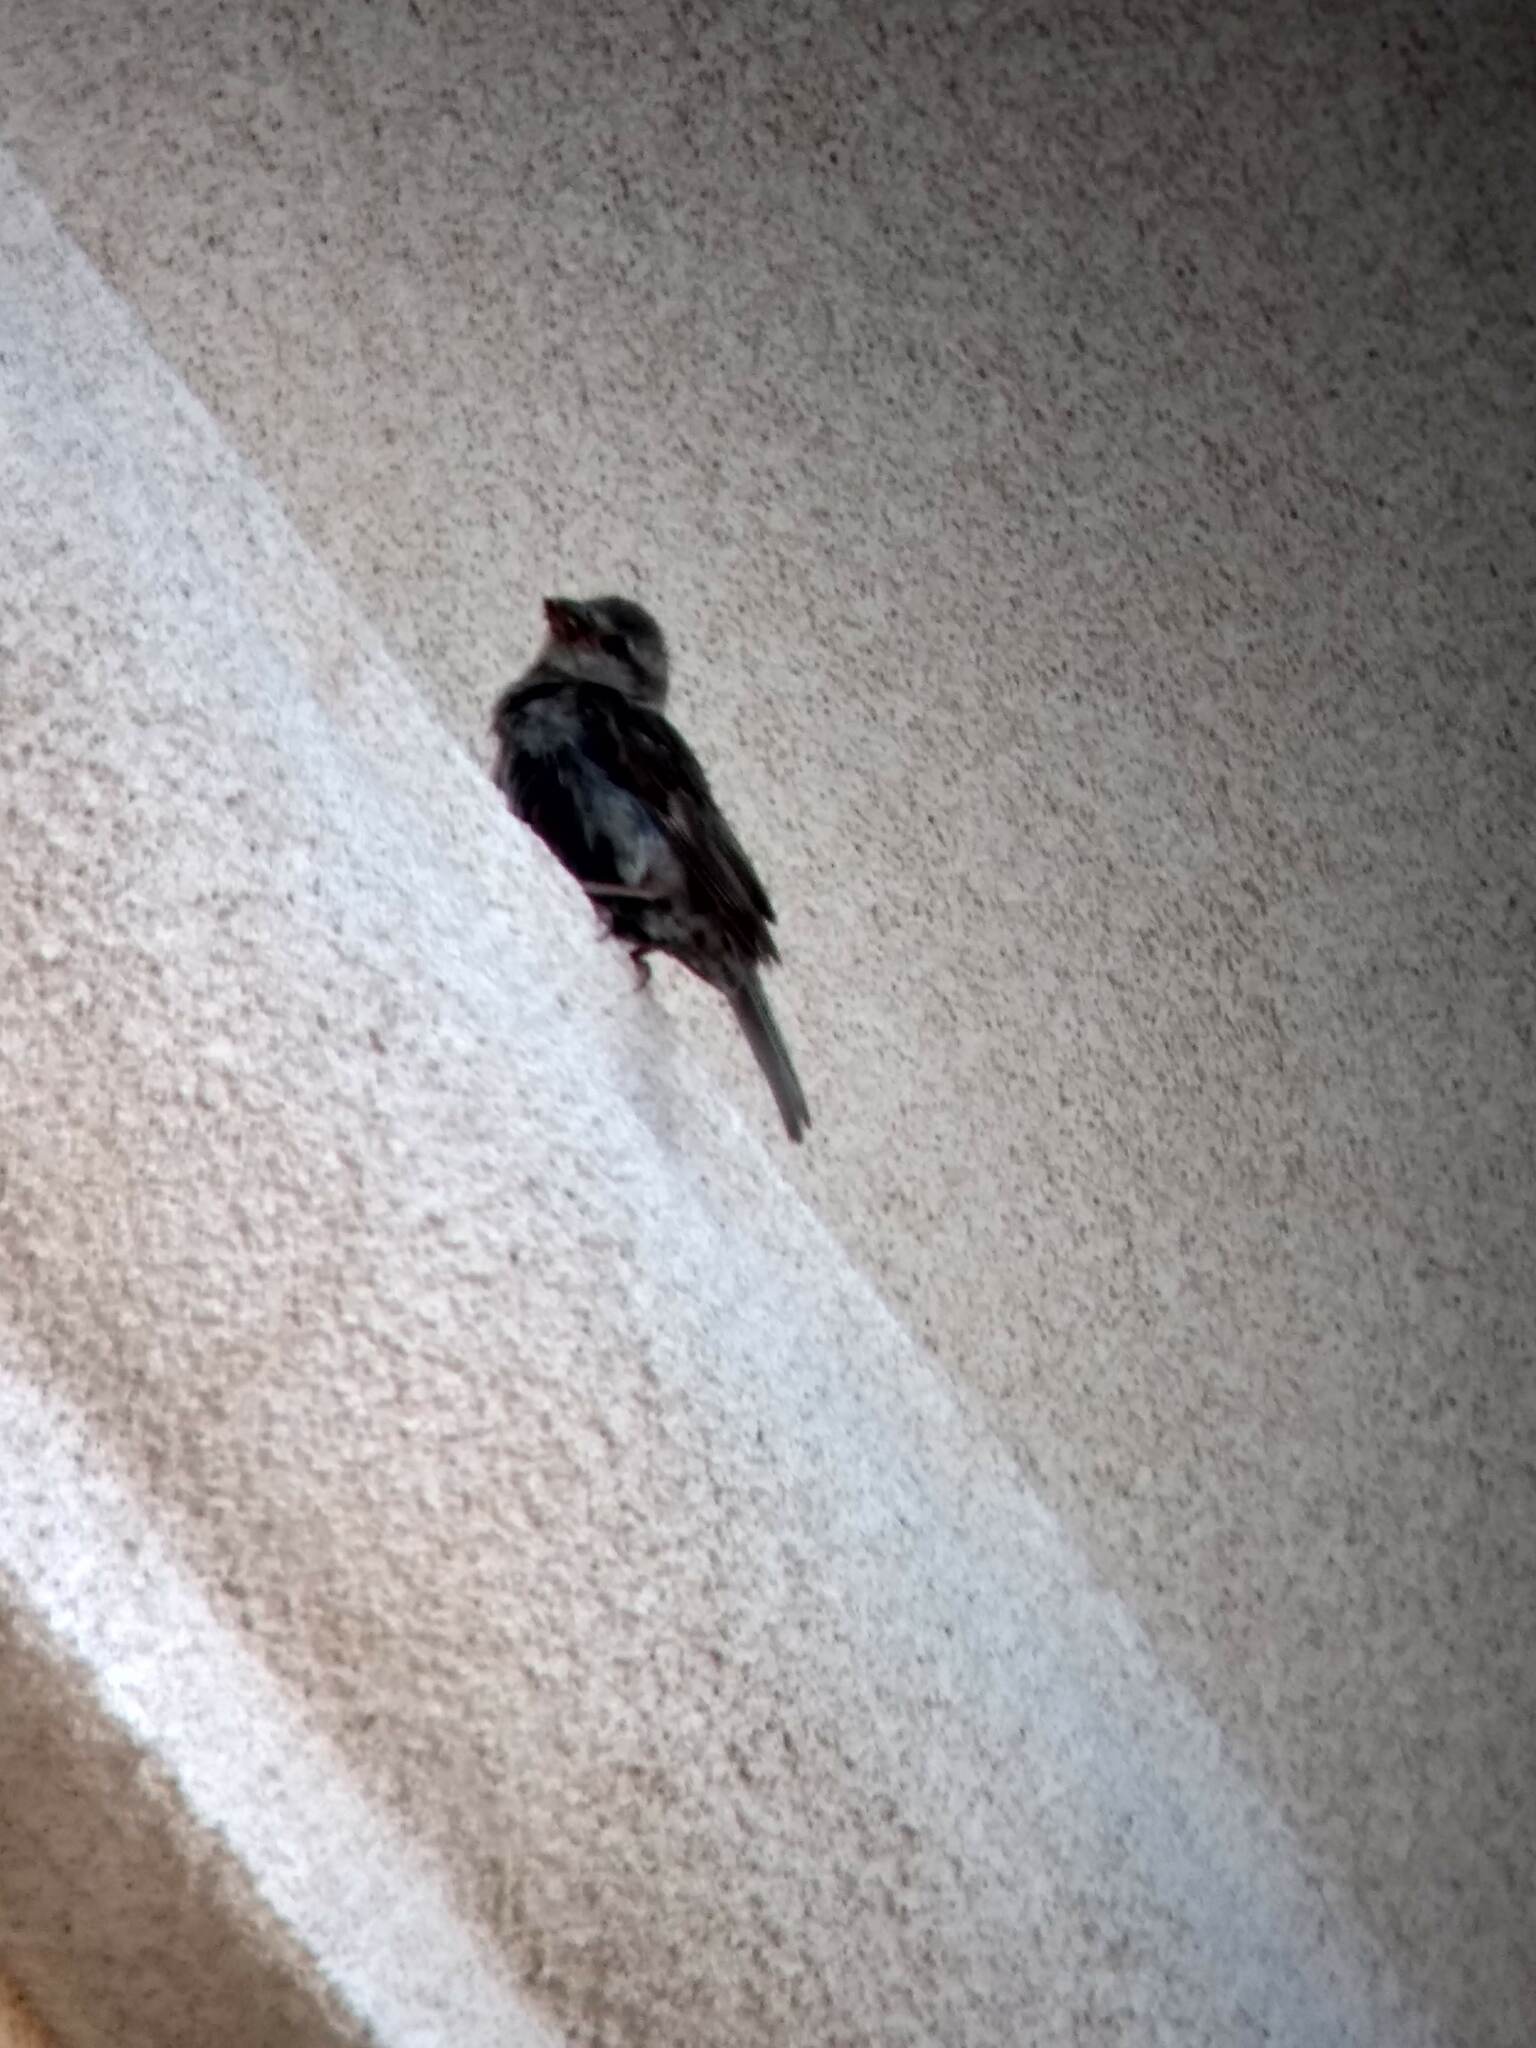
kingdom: Animalia
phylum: Chordata
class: Aves
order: Passeriformes
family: Passeridae
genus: Passer
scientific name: Passer domesticus
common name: House sparrow
